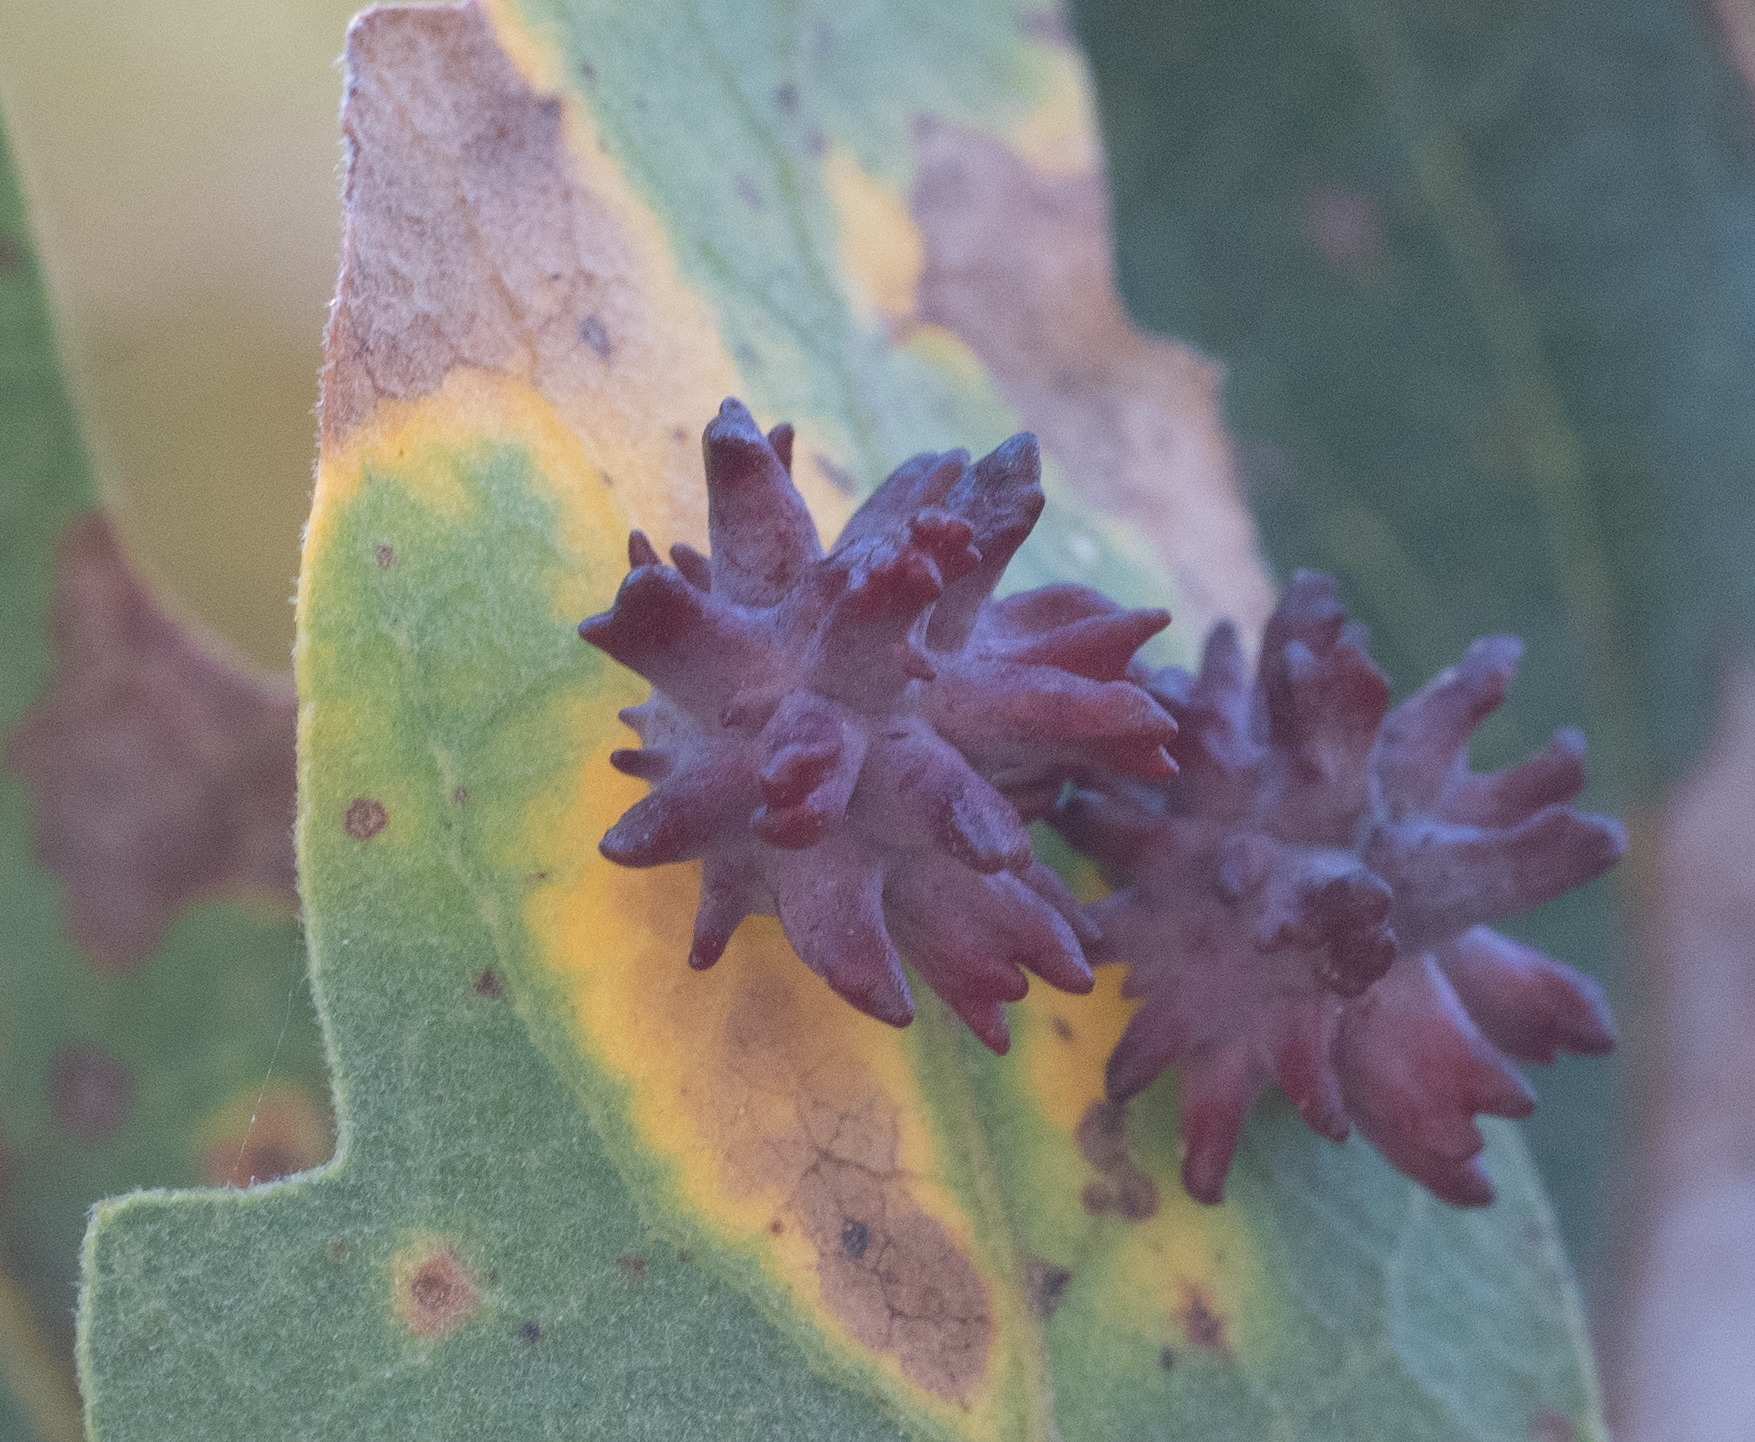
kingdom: Animalia
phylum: Arthropoda
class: Insecta
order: Hymenoptera
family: Cynipidae
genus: Cynips
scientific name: Cynips
